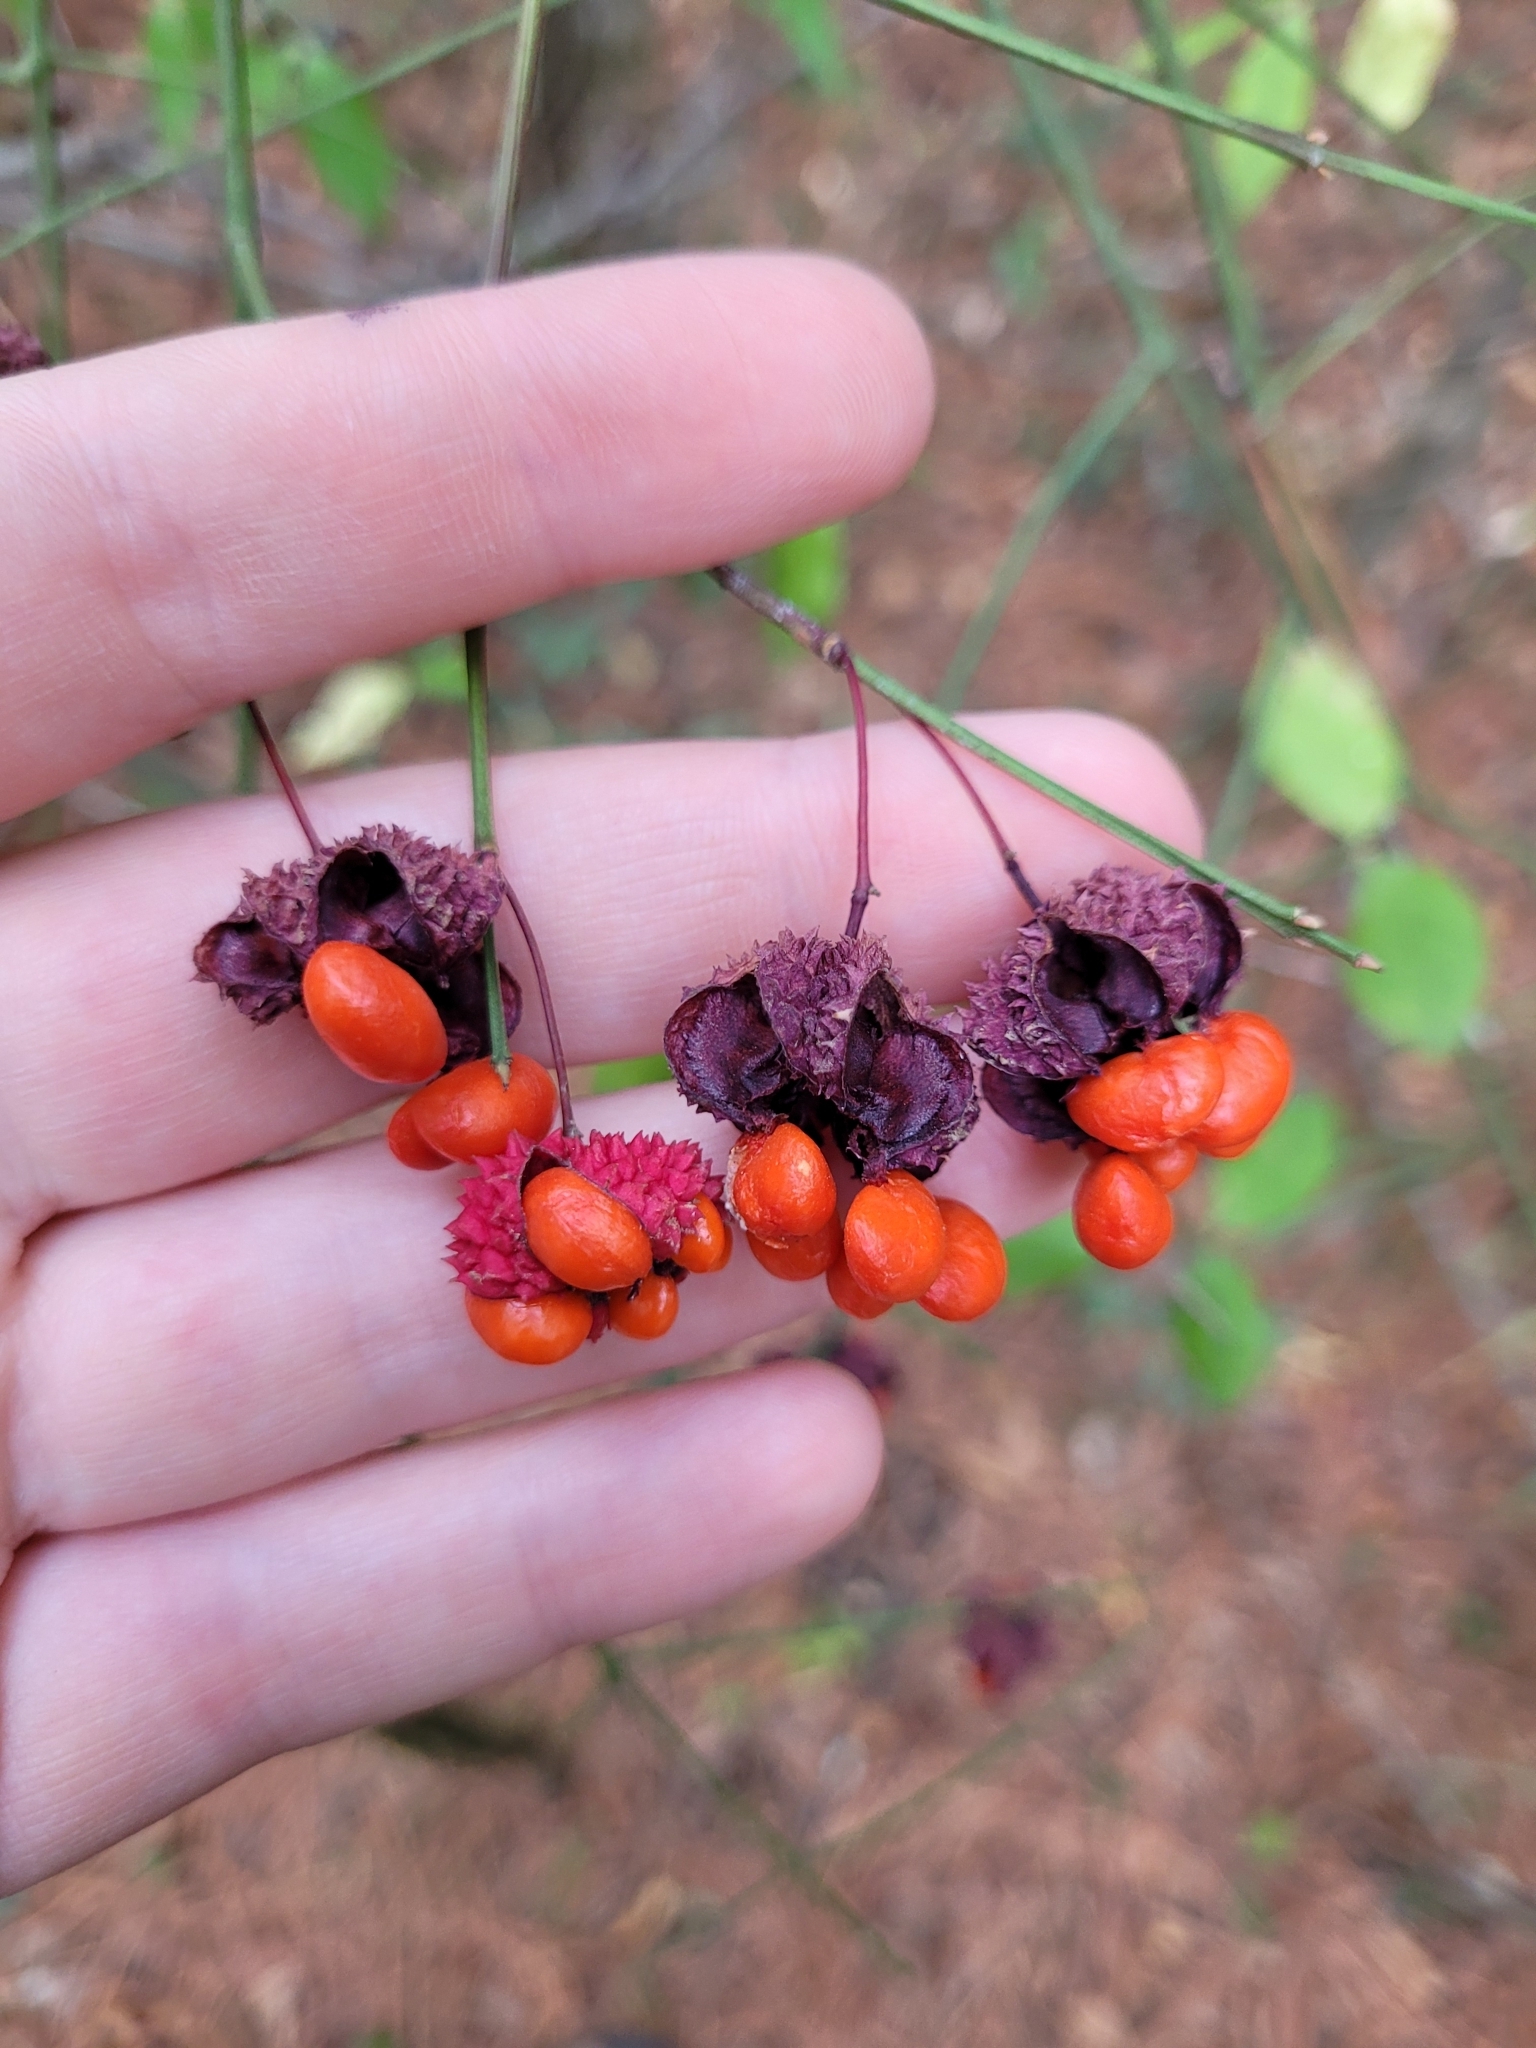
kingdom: Plantae
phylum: Tracheophyta
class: Magnoliopsida
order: Celastrales
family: Celastraceae
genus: Euonymus
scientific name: Euonymus americanus
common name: Bursting-heart
